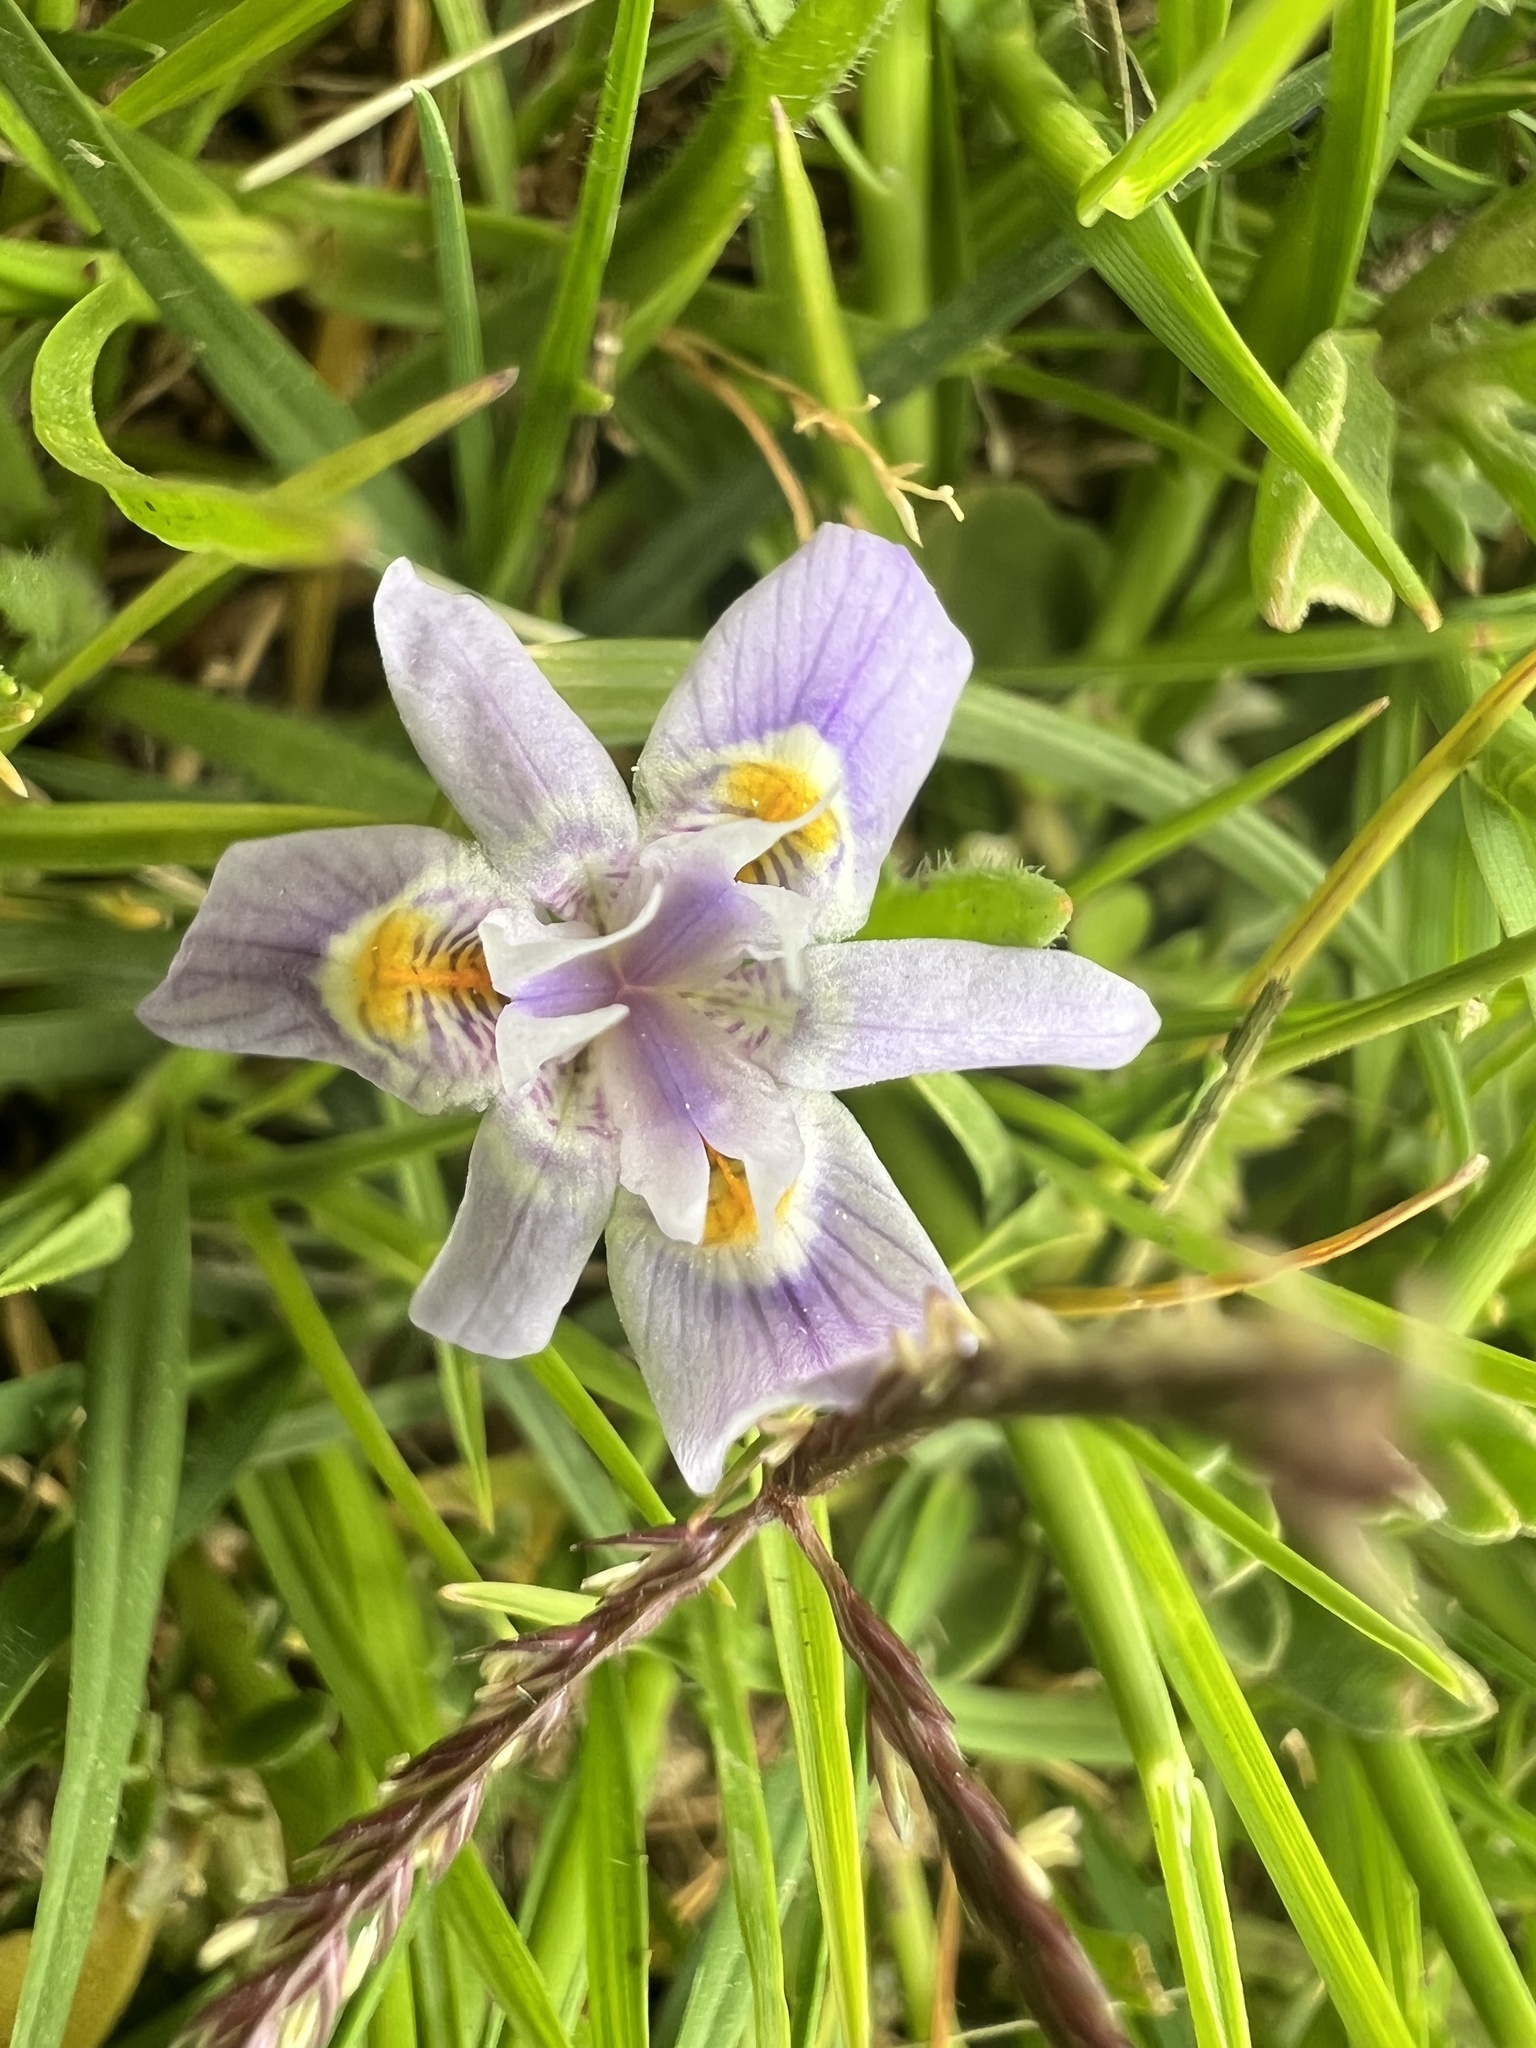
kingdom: Plantae
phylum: Tracheophyta
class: Liliopsida
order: Asparagales
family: Iridaceae
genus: Moraea
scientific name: Moraea setifolia
